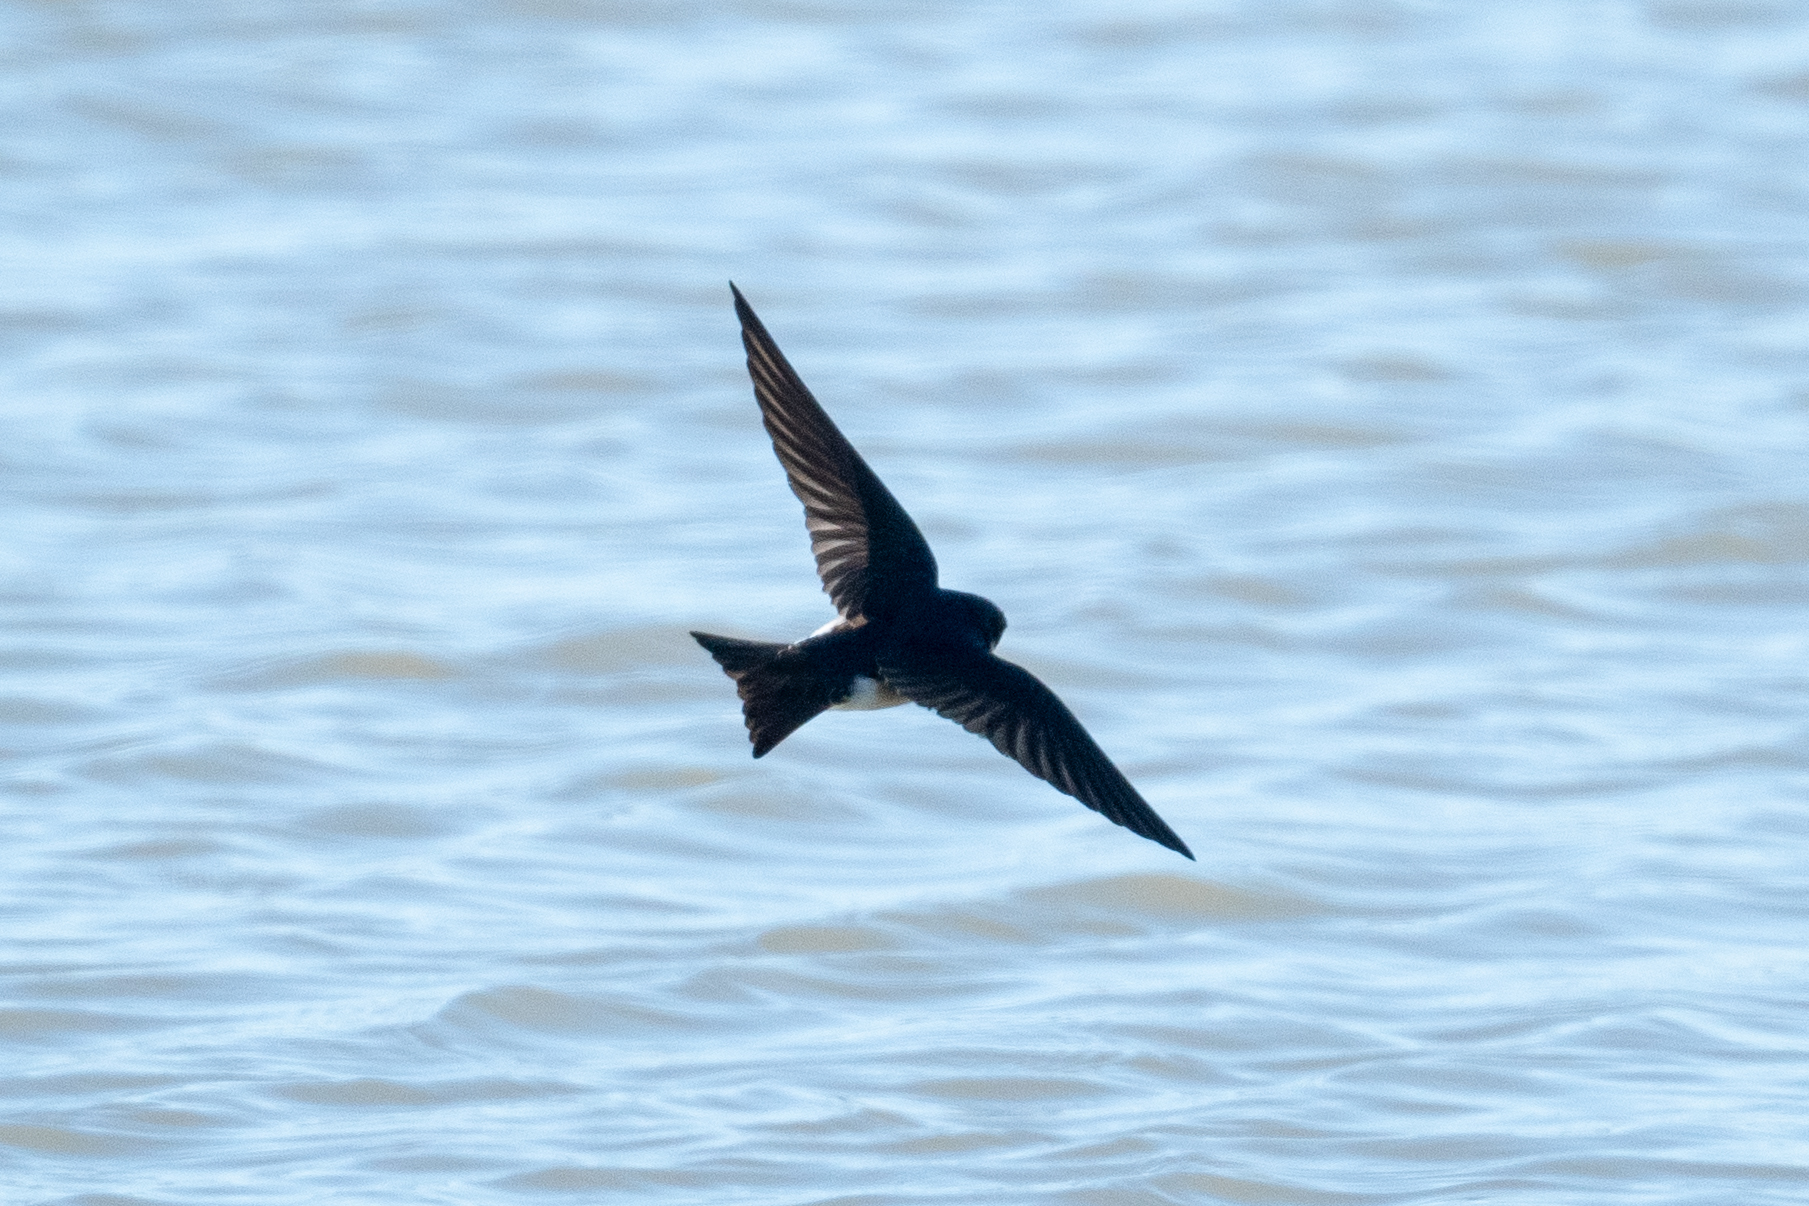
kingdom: Animalia
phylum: Chordata
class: Aves
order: Passeriformes
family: Hirundinidae
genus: Tachycineta
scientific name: Tachycineta bicolor
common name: Tree swallow
